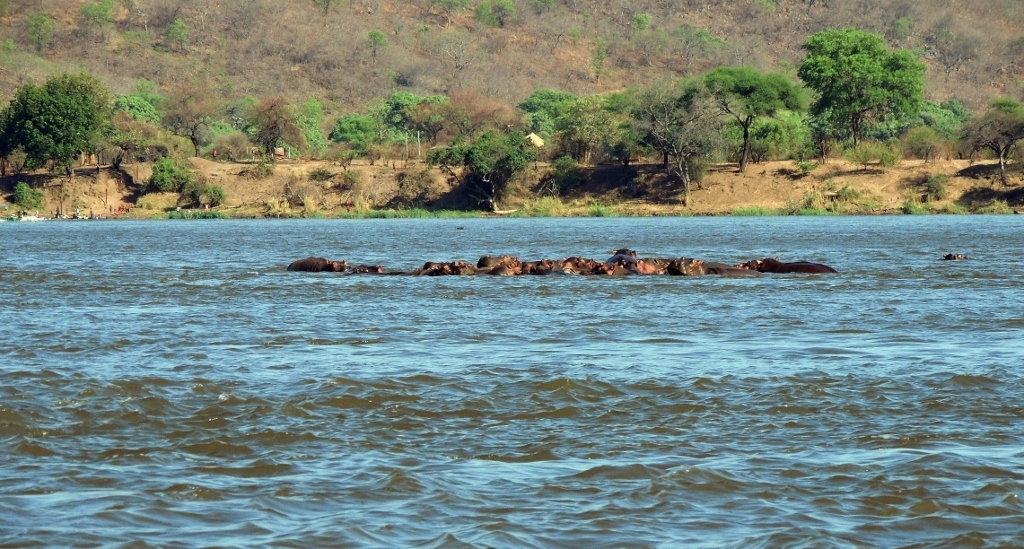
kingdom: Animalia
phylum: Chordata
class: Mammalia
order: Artiodactyla
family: Hippopotamidae
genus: Hippopotamus
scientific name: Hippopotamus amphibius
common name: Common hippopotamus
